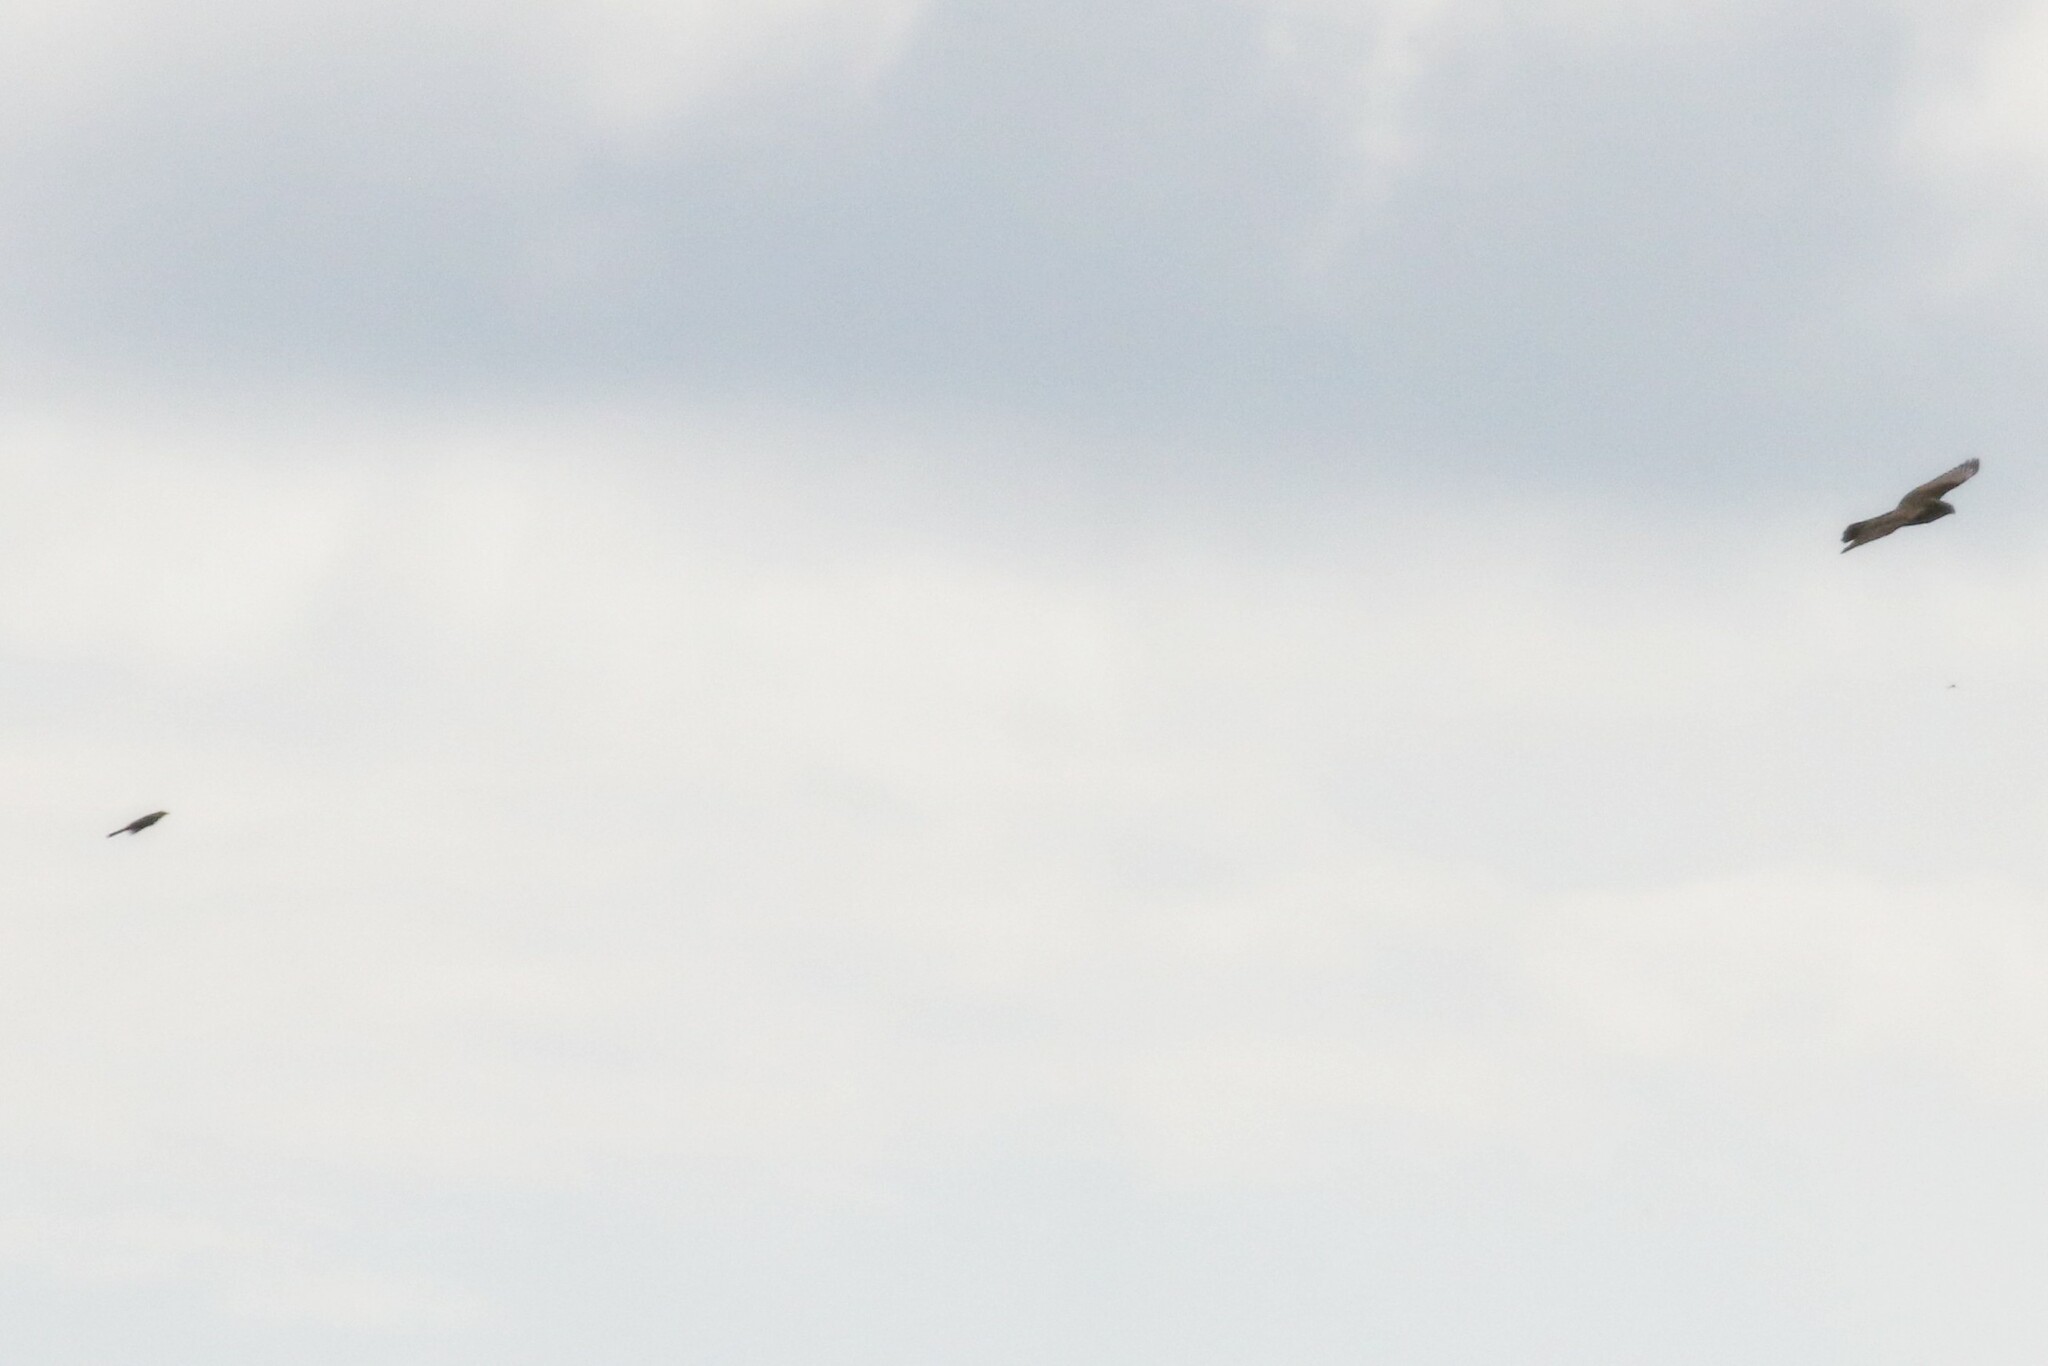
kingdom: Animalia
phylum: Chordata
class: Aves
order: Accipitriformes
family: Accipitridae
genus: Accipiter
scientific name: Accipiter nisus
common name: Eurasian sparrowhawk
